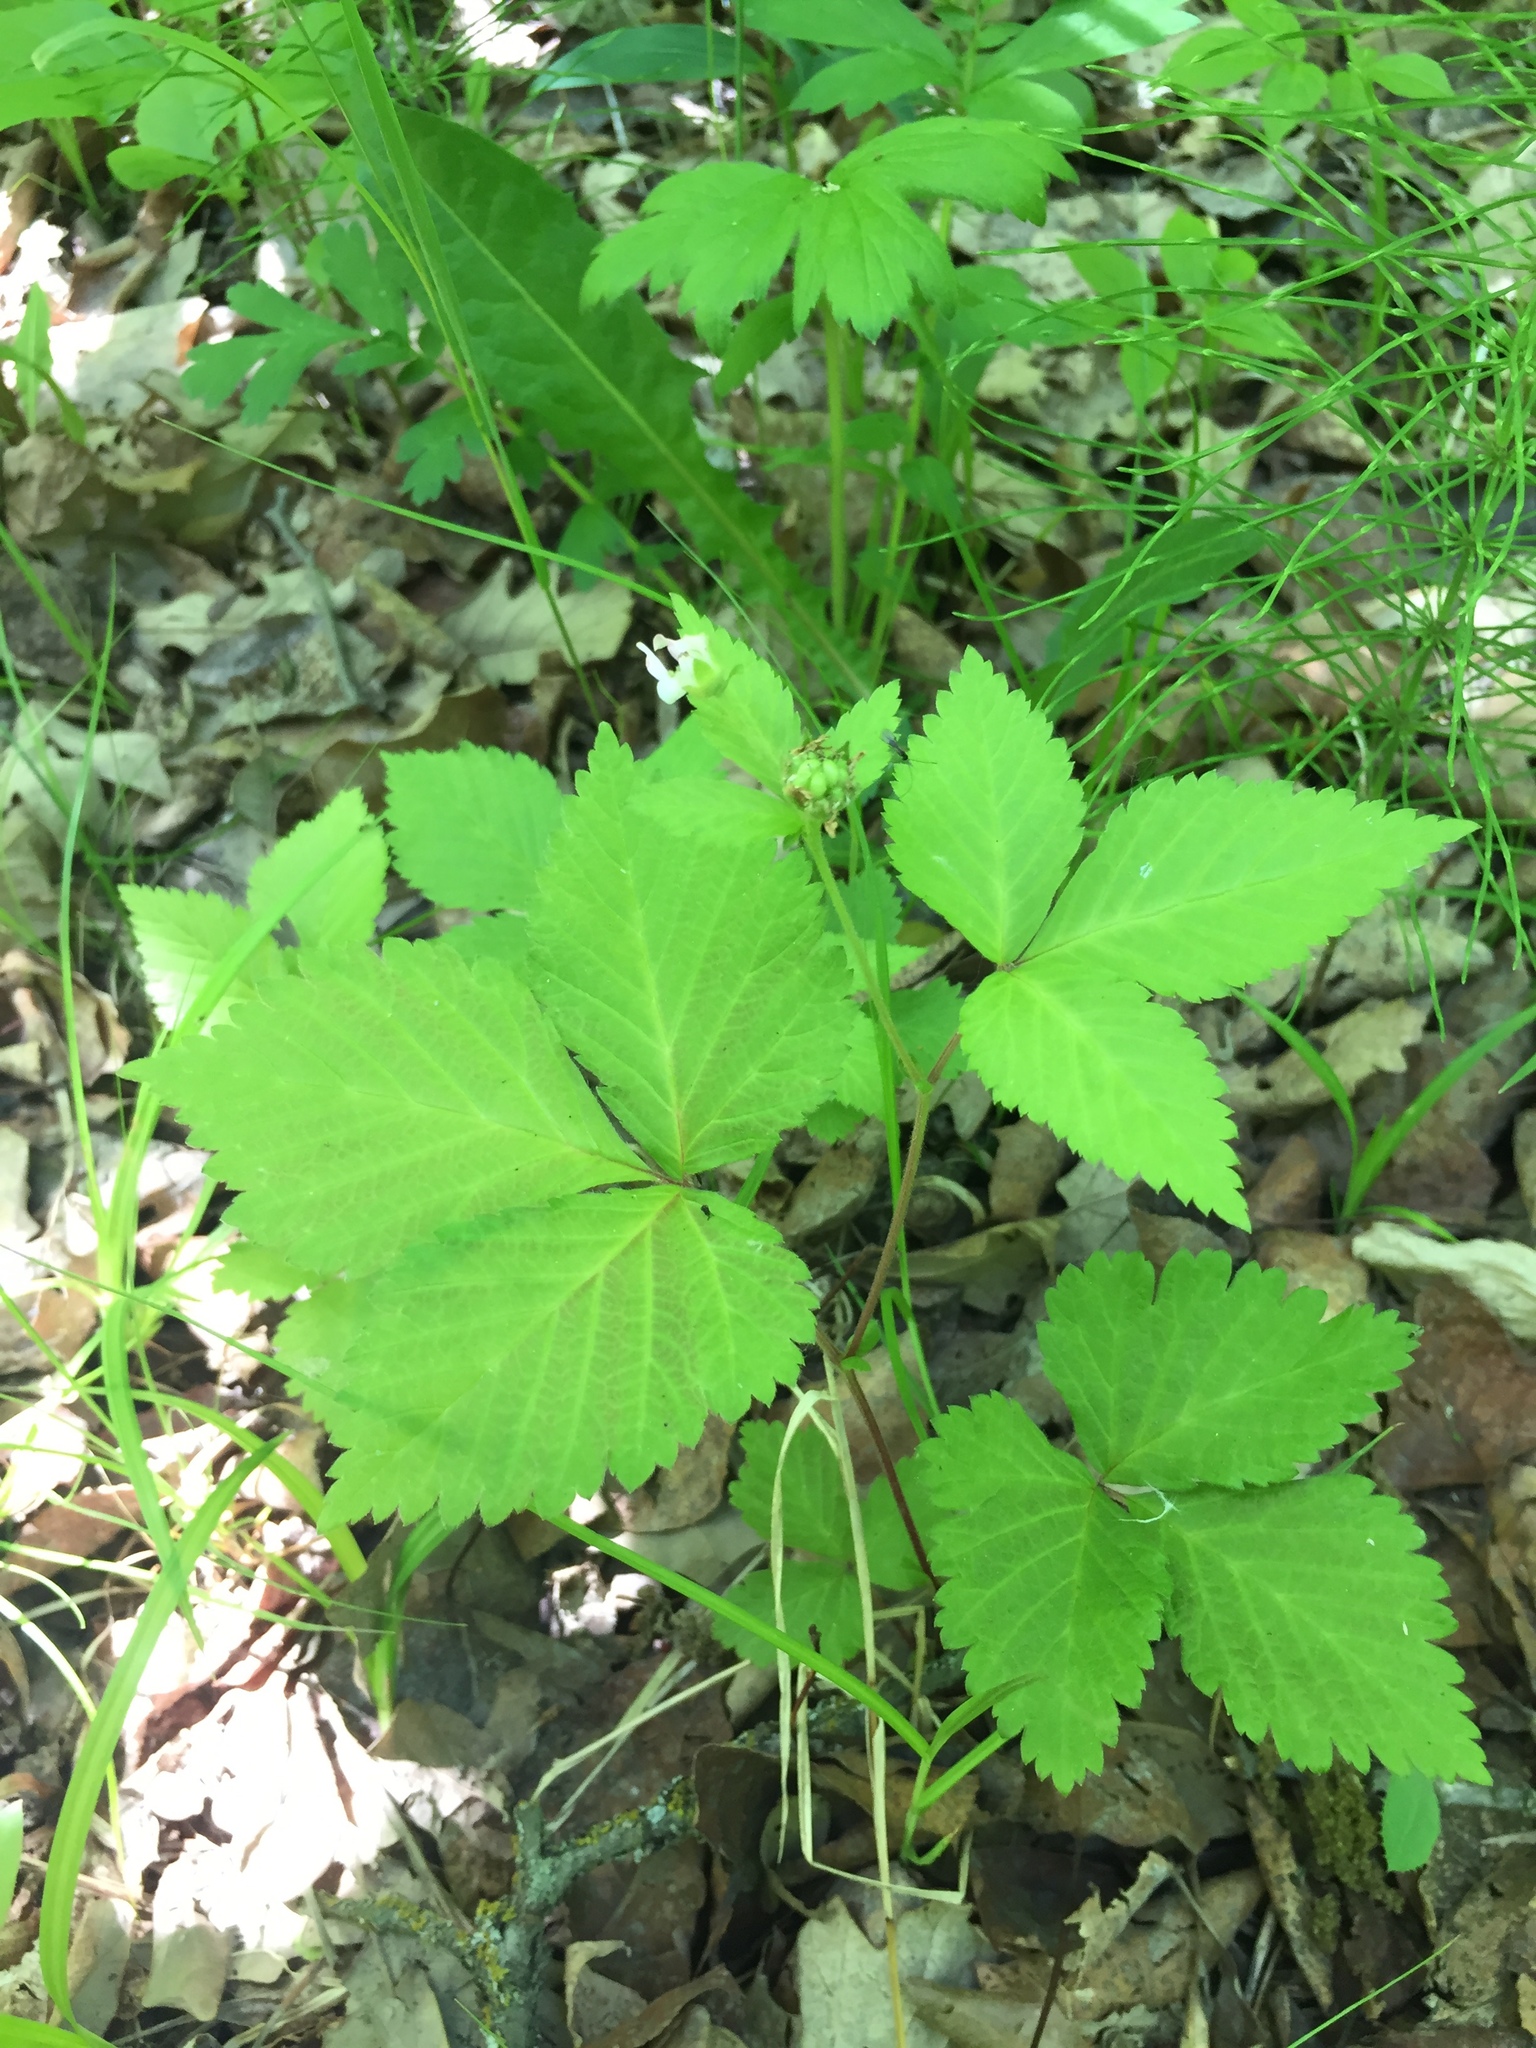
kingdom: Plantae
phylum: Tracheophyta
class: Magnoliopsida
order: Rosales
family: Rosaceae
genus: Rubus
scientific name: Rubus pubescens
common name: Dwarf raspberry
